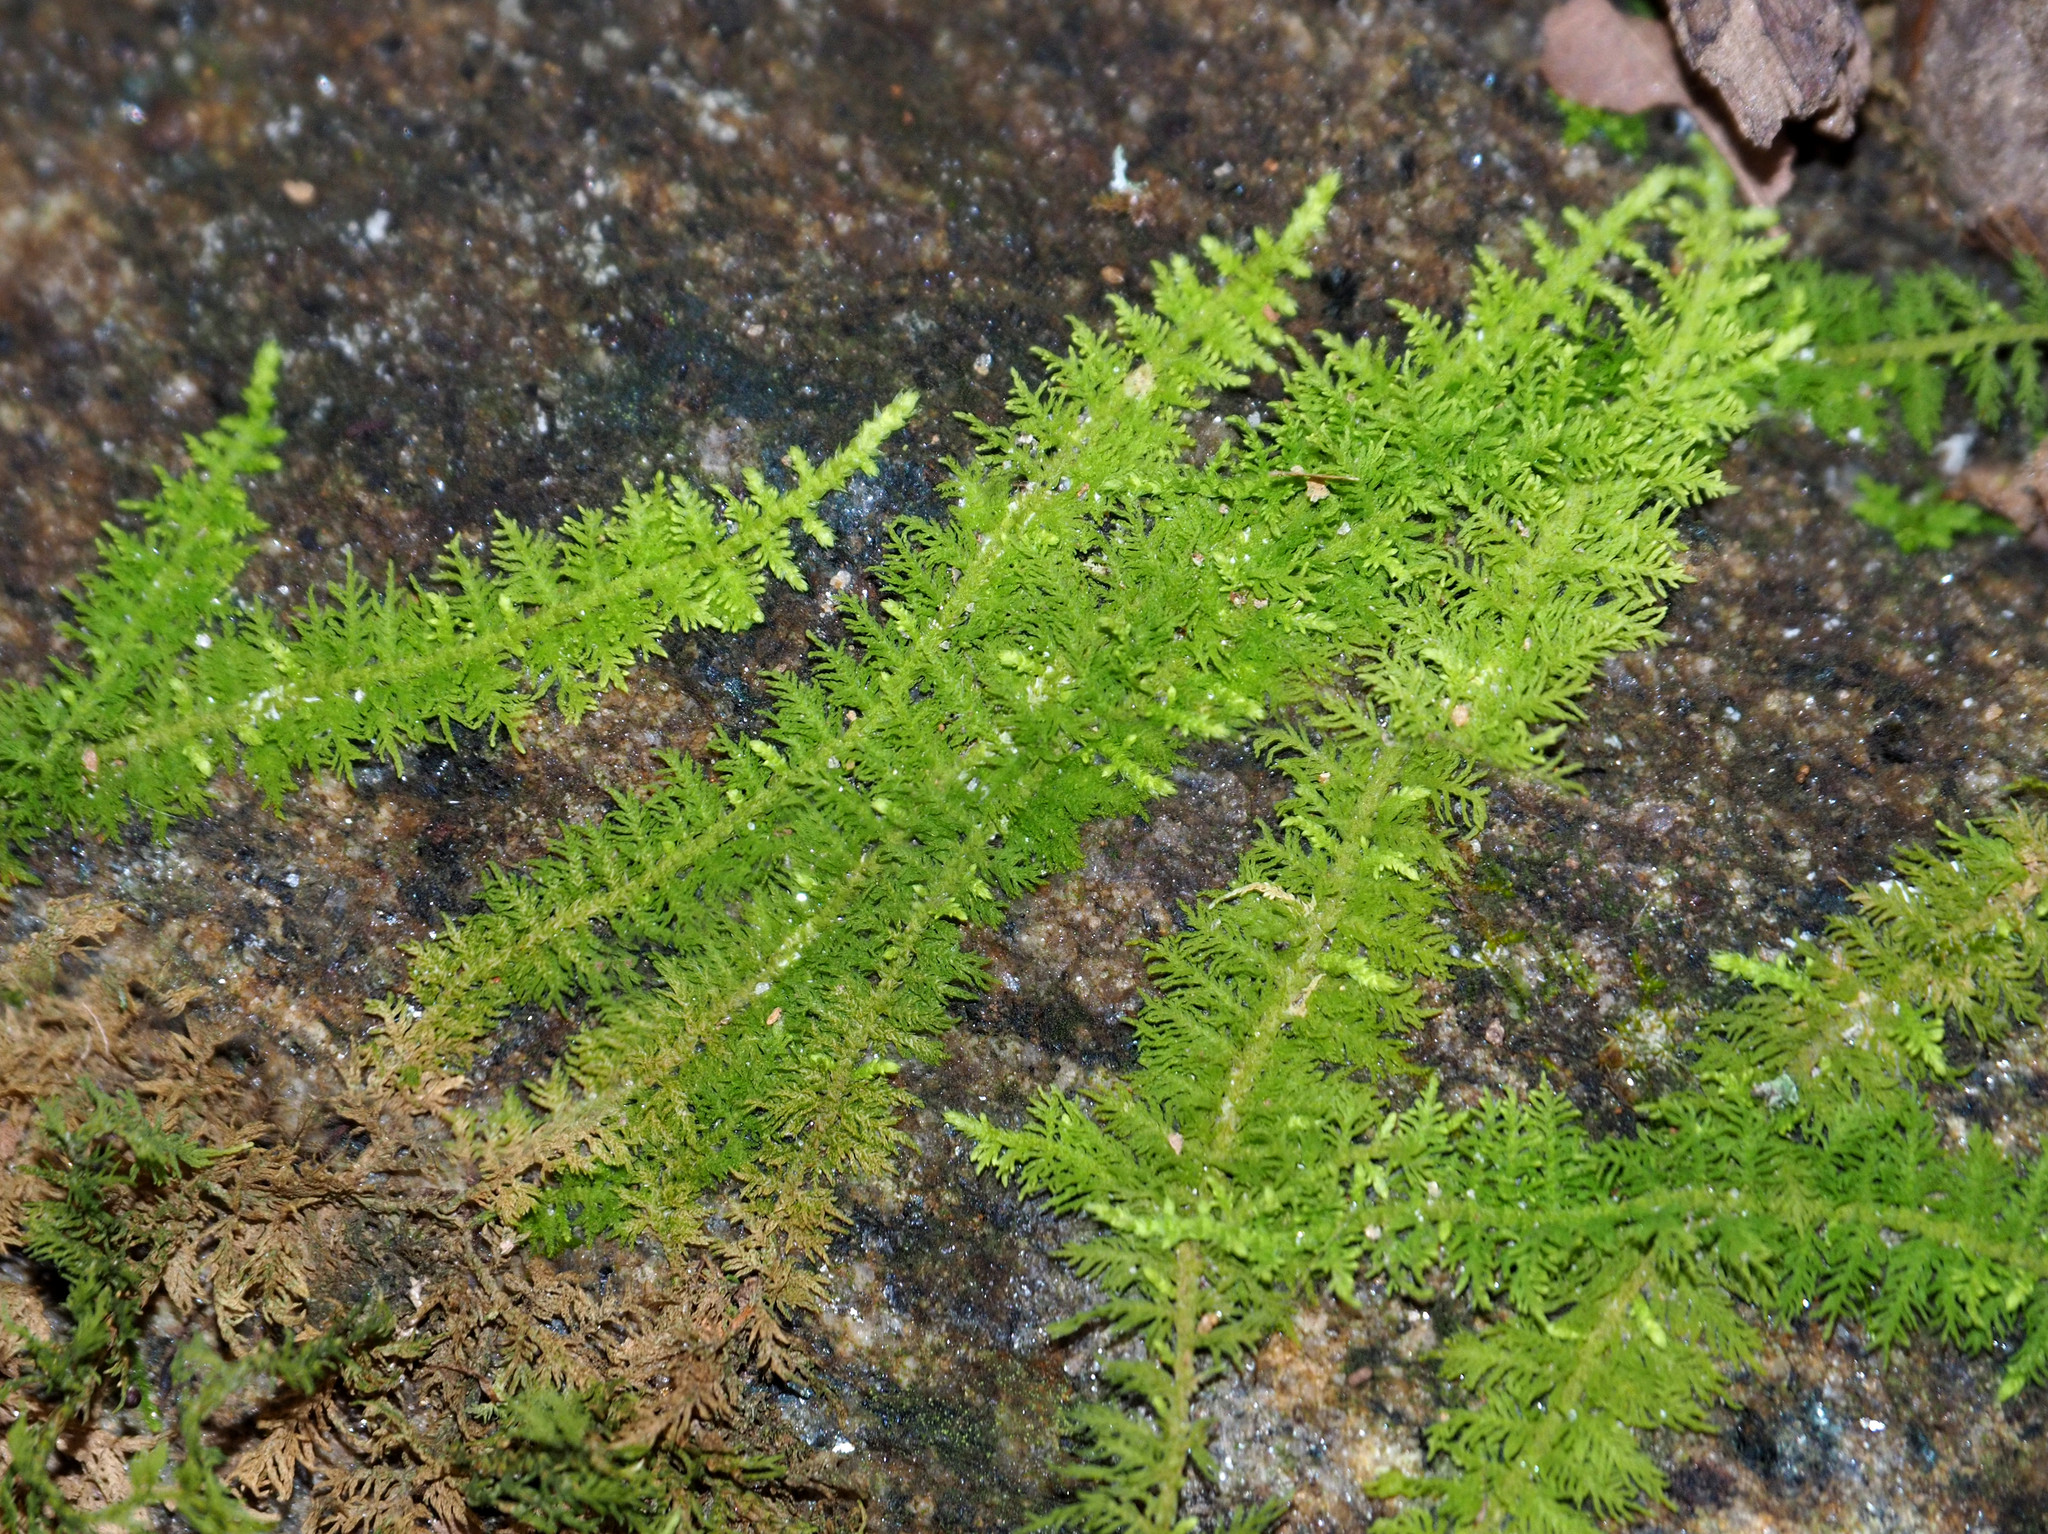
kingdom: Plantae
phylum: Bryophyta
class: Bryopsida
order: Hypnales
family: Thuidiaceae
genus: Thuidium
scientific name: Thuidium delicatulum
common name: Delicate fern moss
